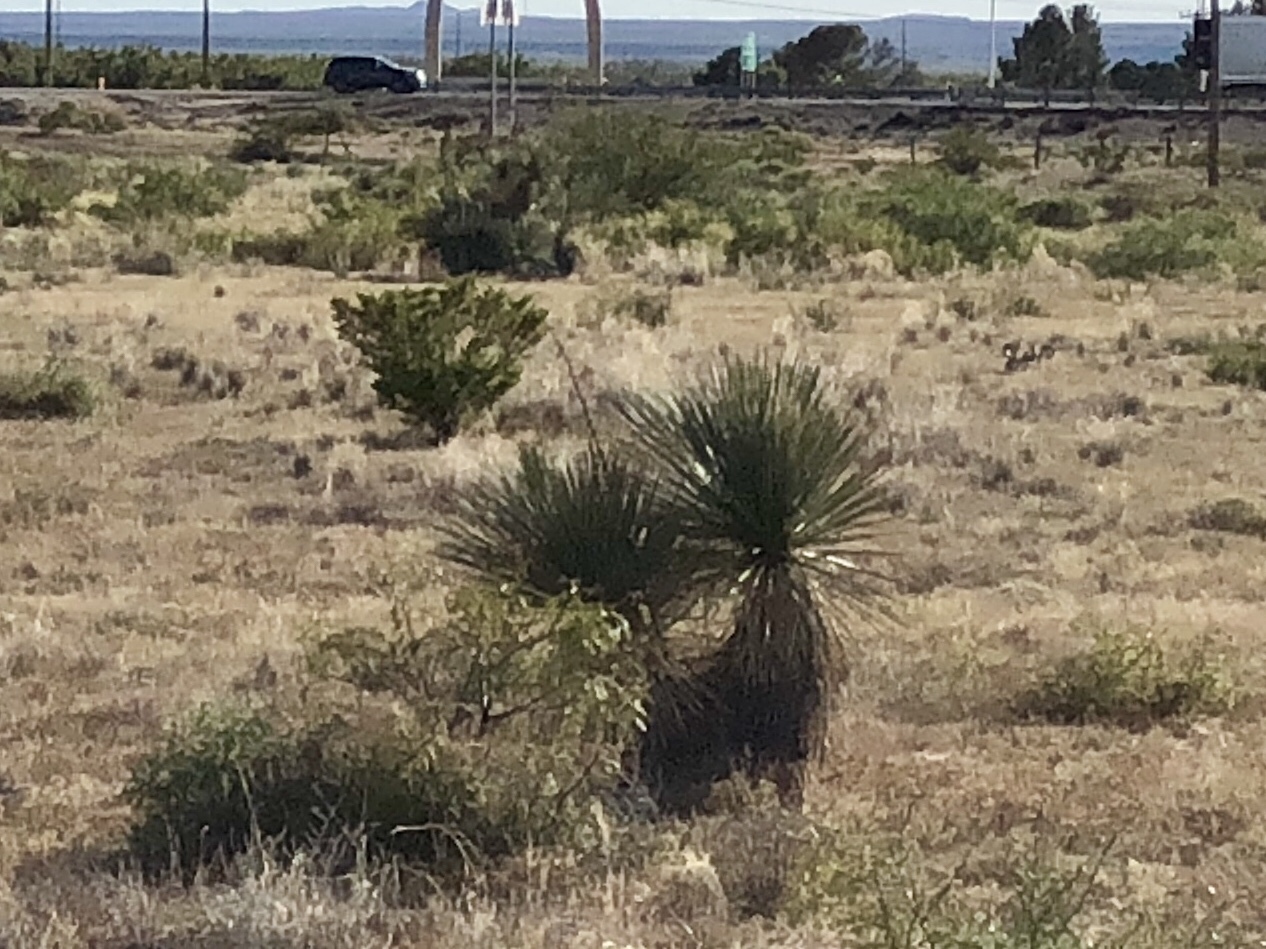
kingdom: Plantae
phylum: Tracheophyta
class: Liliopsida
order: Asparagales
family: Asparagaceae
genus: Yucca
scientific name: Yucca elata
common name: Palmella
